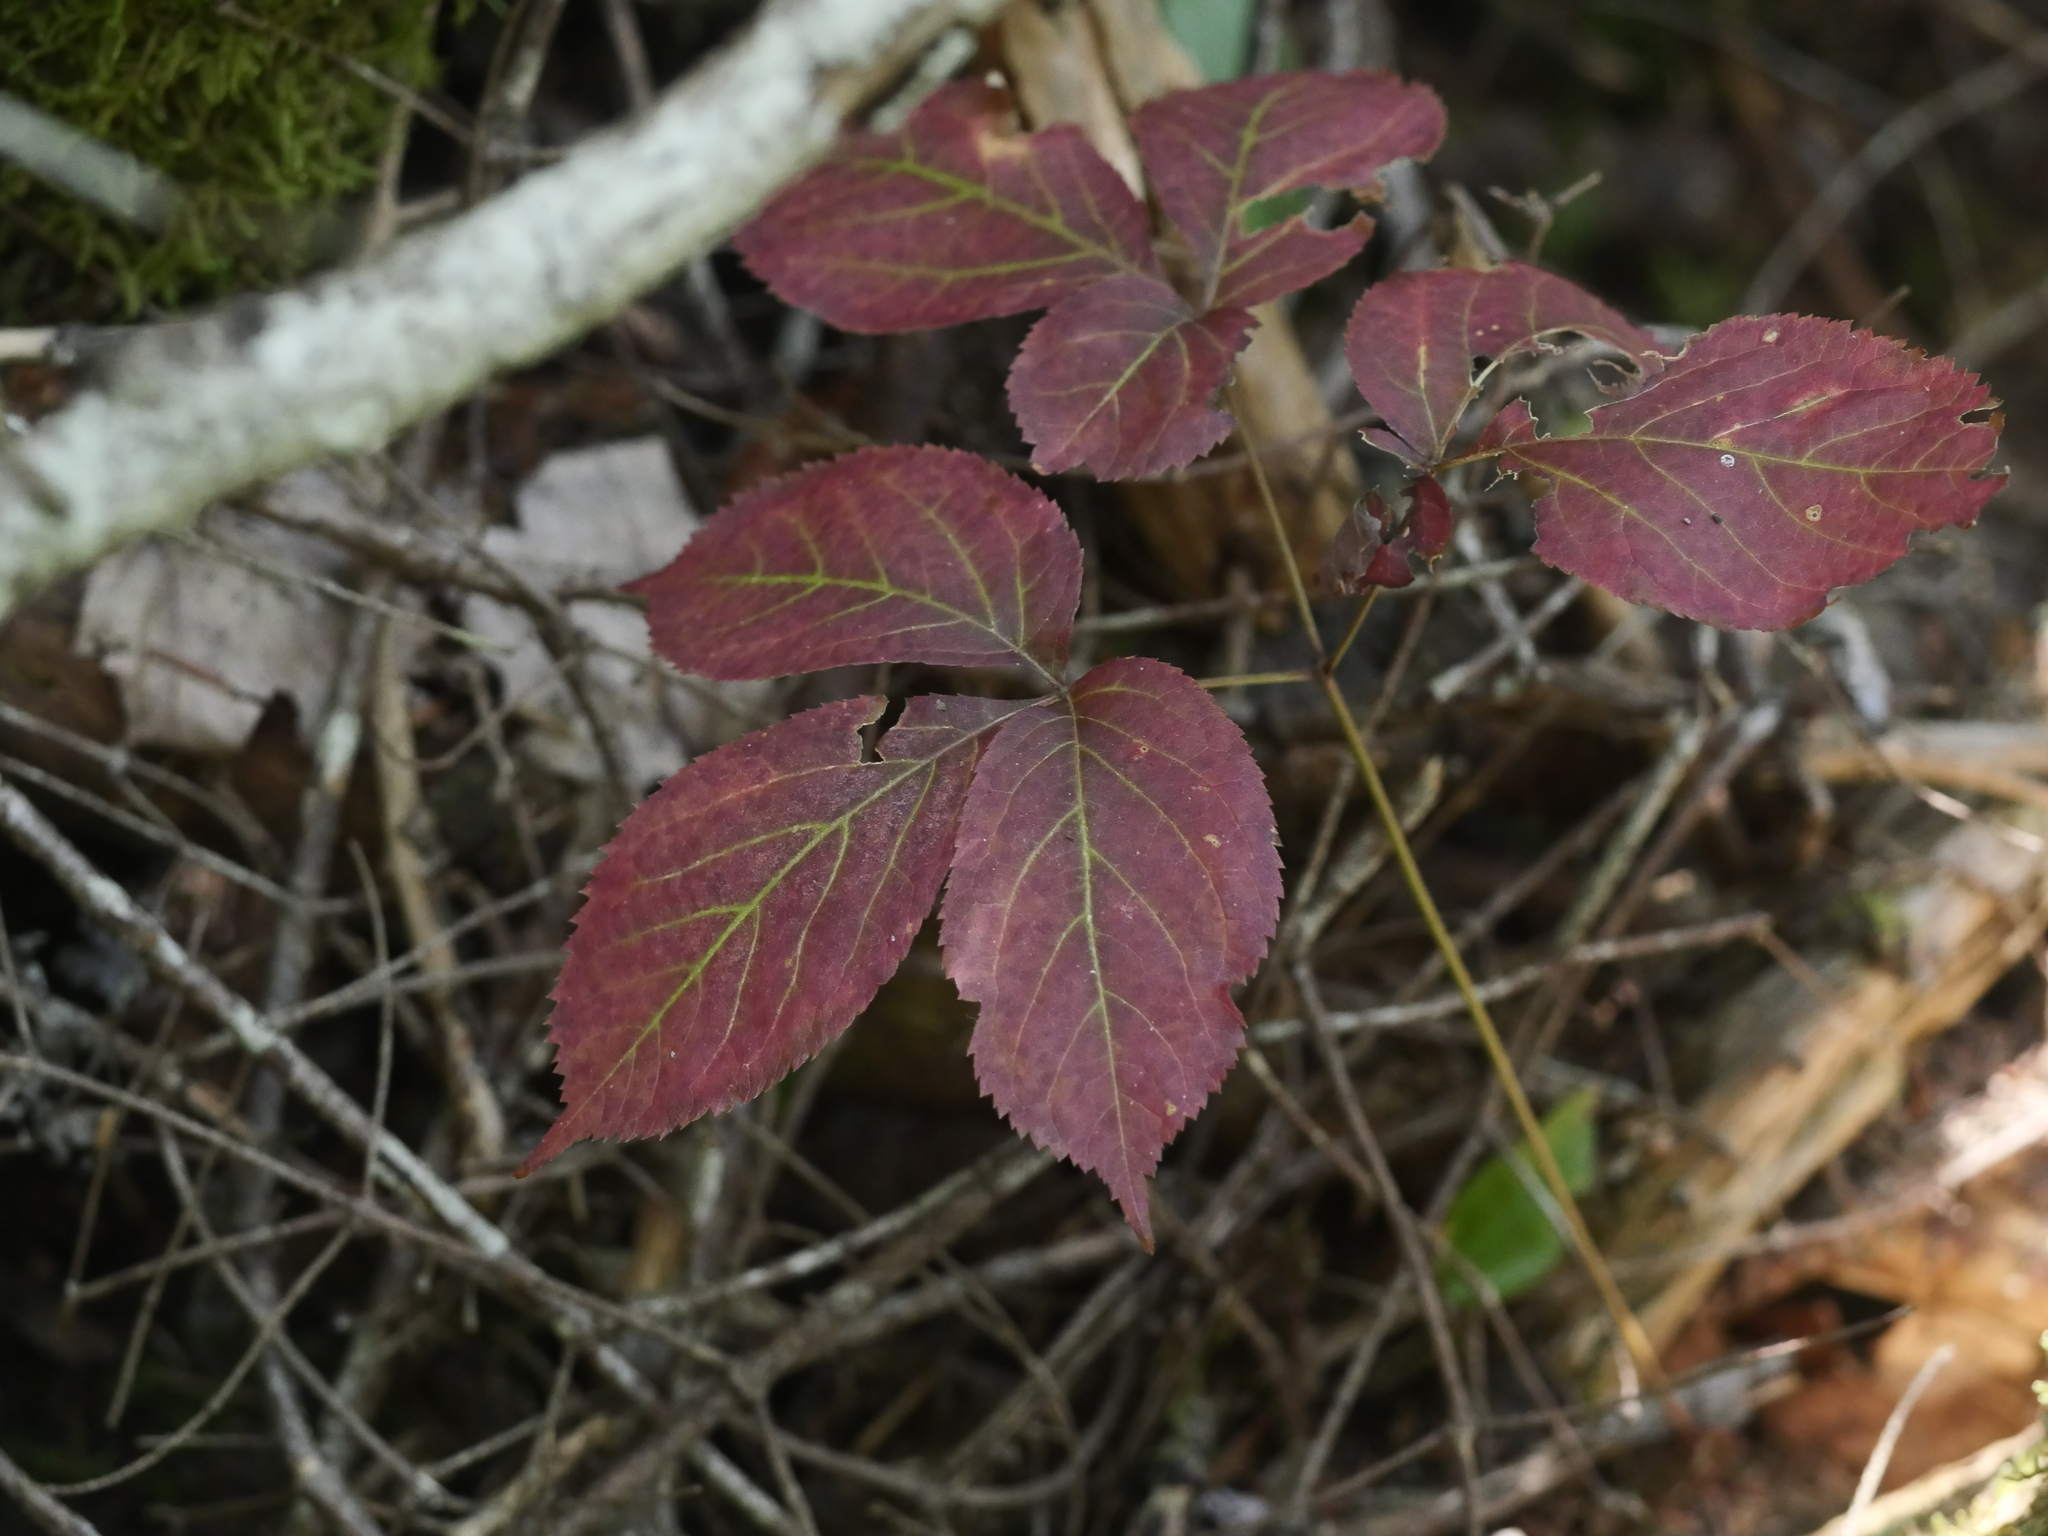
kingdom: Plantae
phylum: Tracheophyta
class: Magnoliopsida
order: Apiales
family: Araliaceae
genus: Aralia
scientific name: Aralia nudicaulis
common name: Wild sarsaparilla
